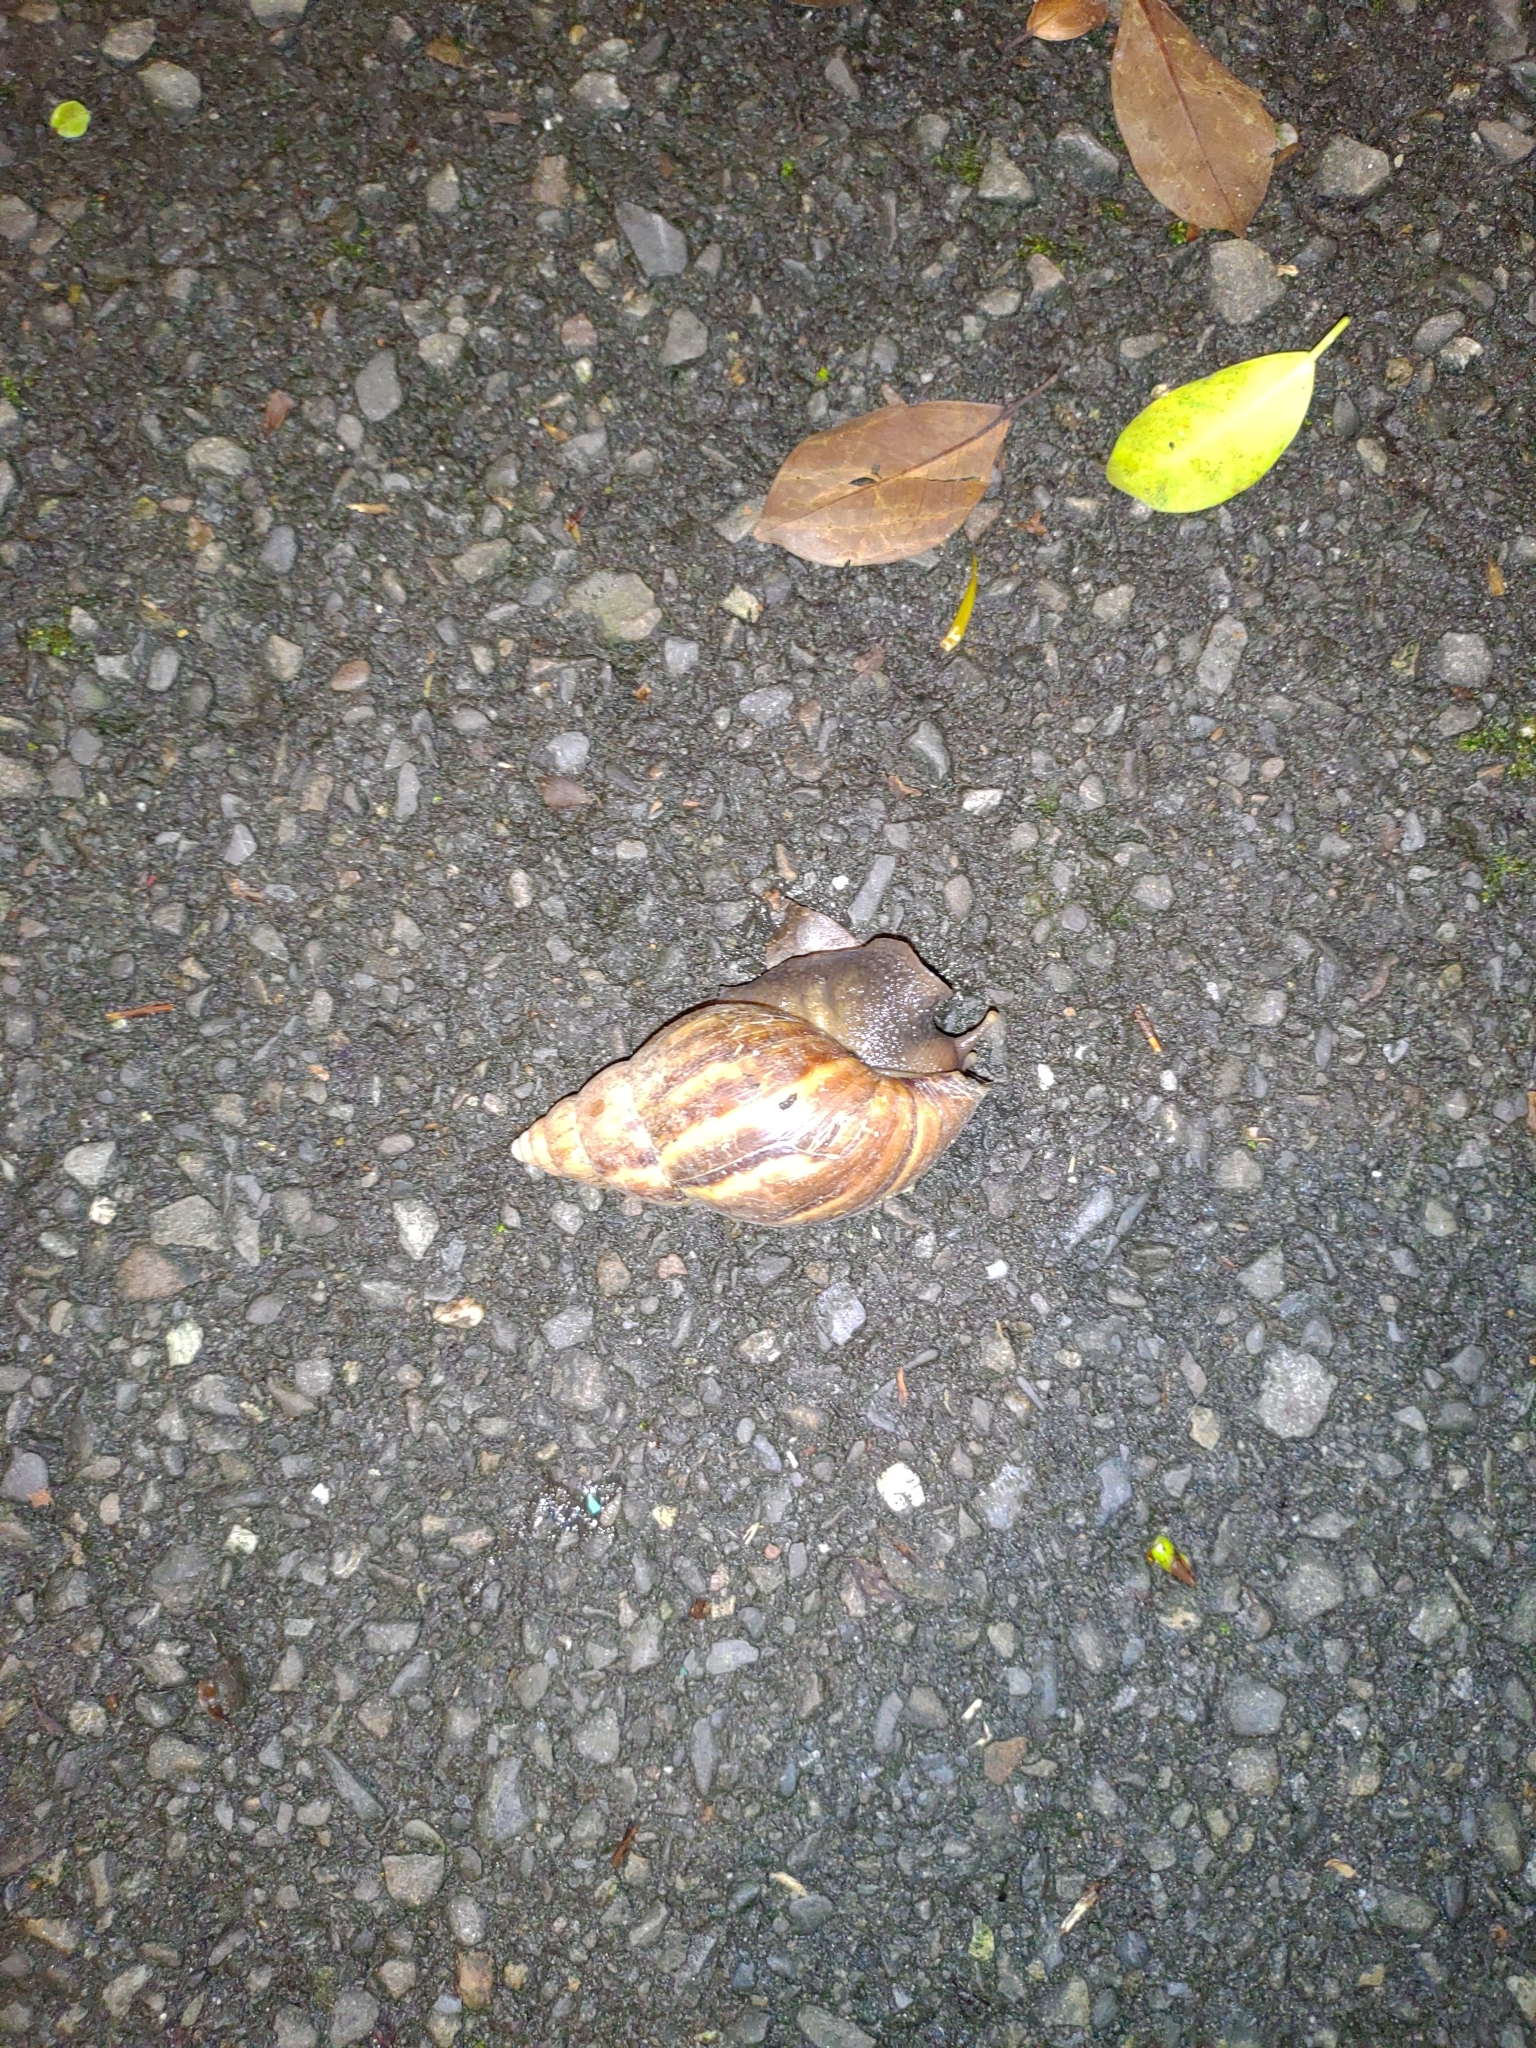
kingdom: Animalia
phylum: Mollusca
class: Gastropoda
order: Stylommatophora
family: Achatinidae
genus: Lissachatina
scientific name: Lissachatina fulica
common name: Giant african snail
